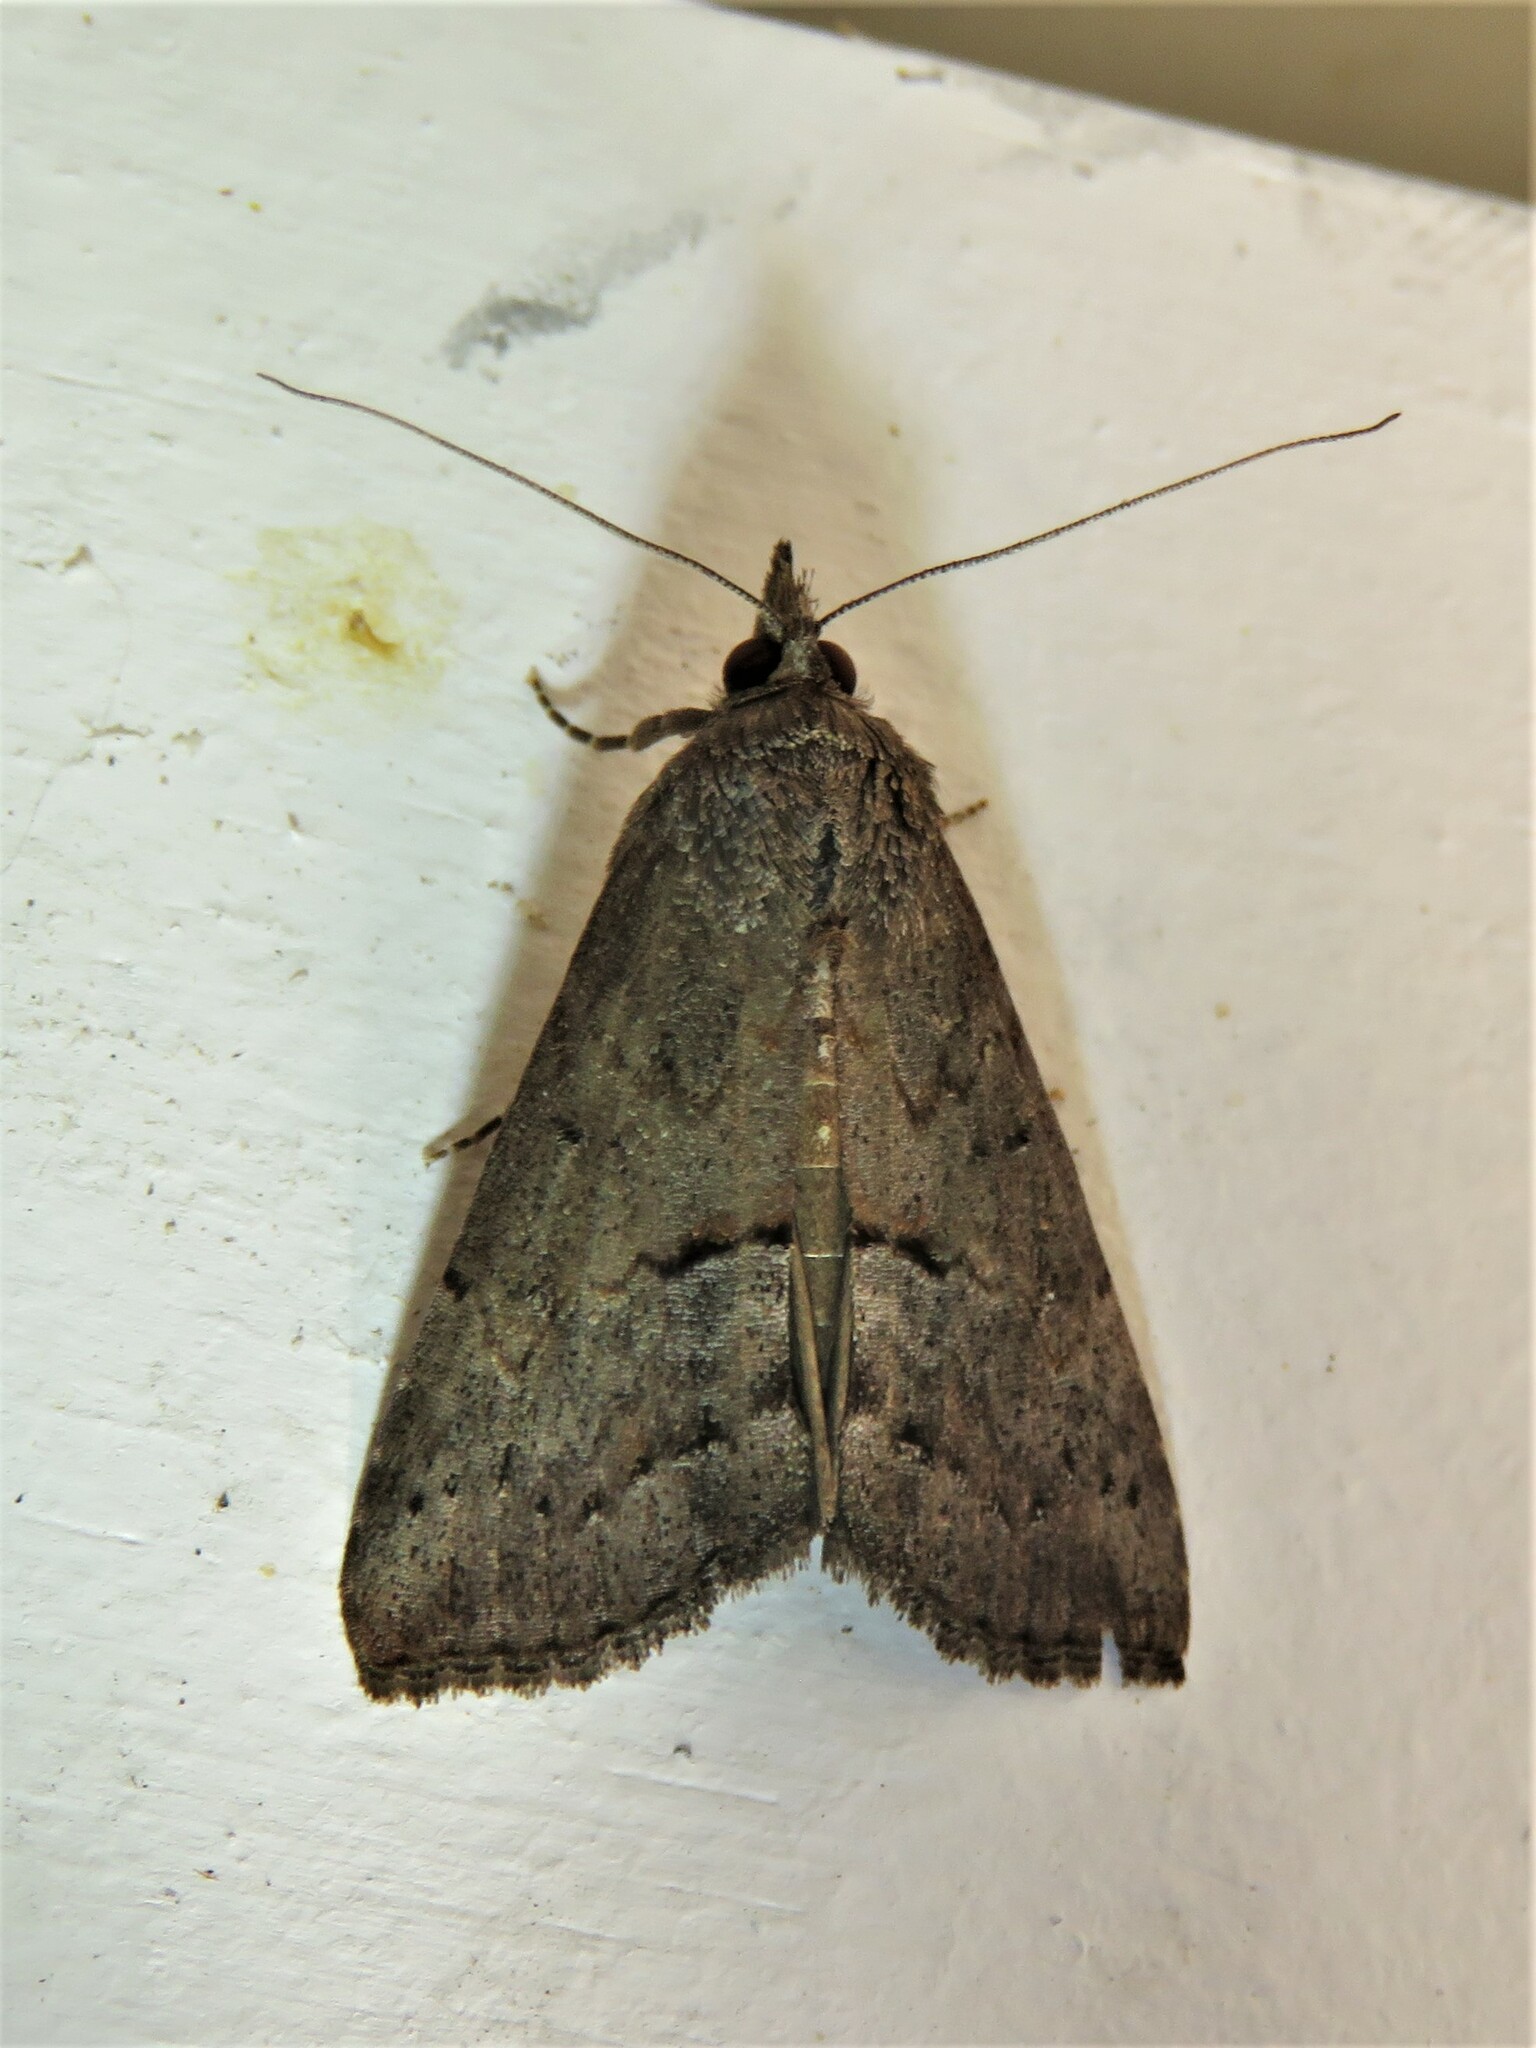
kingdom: Animalia
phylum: Arthropoda
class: Insecta
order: Lepidoptera
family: Erebidae
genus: Hypena
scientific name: Hypena scabra
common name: Green cloverworm
